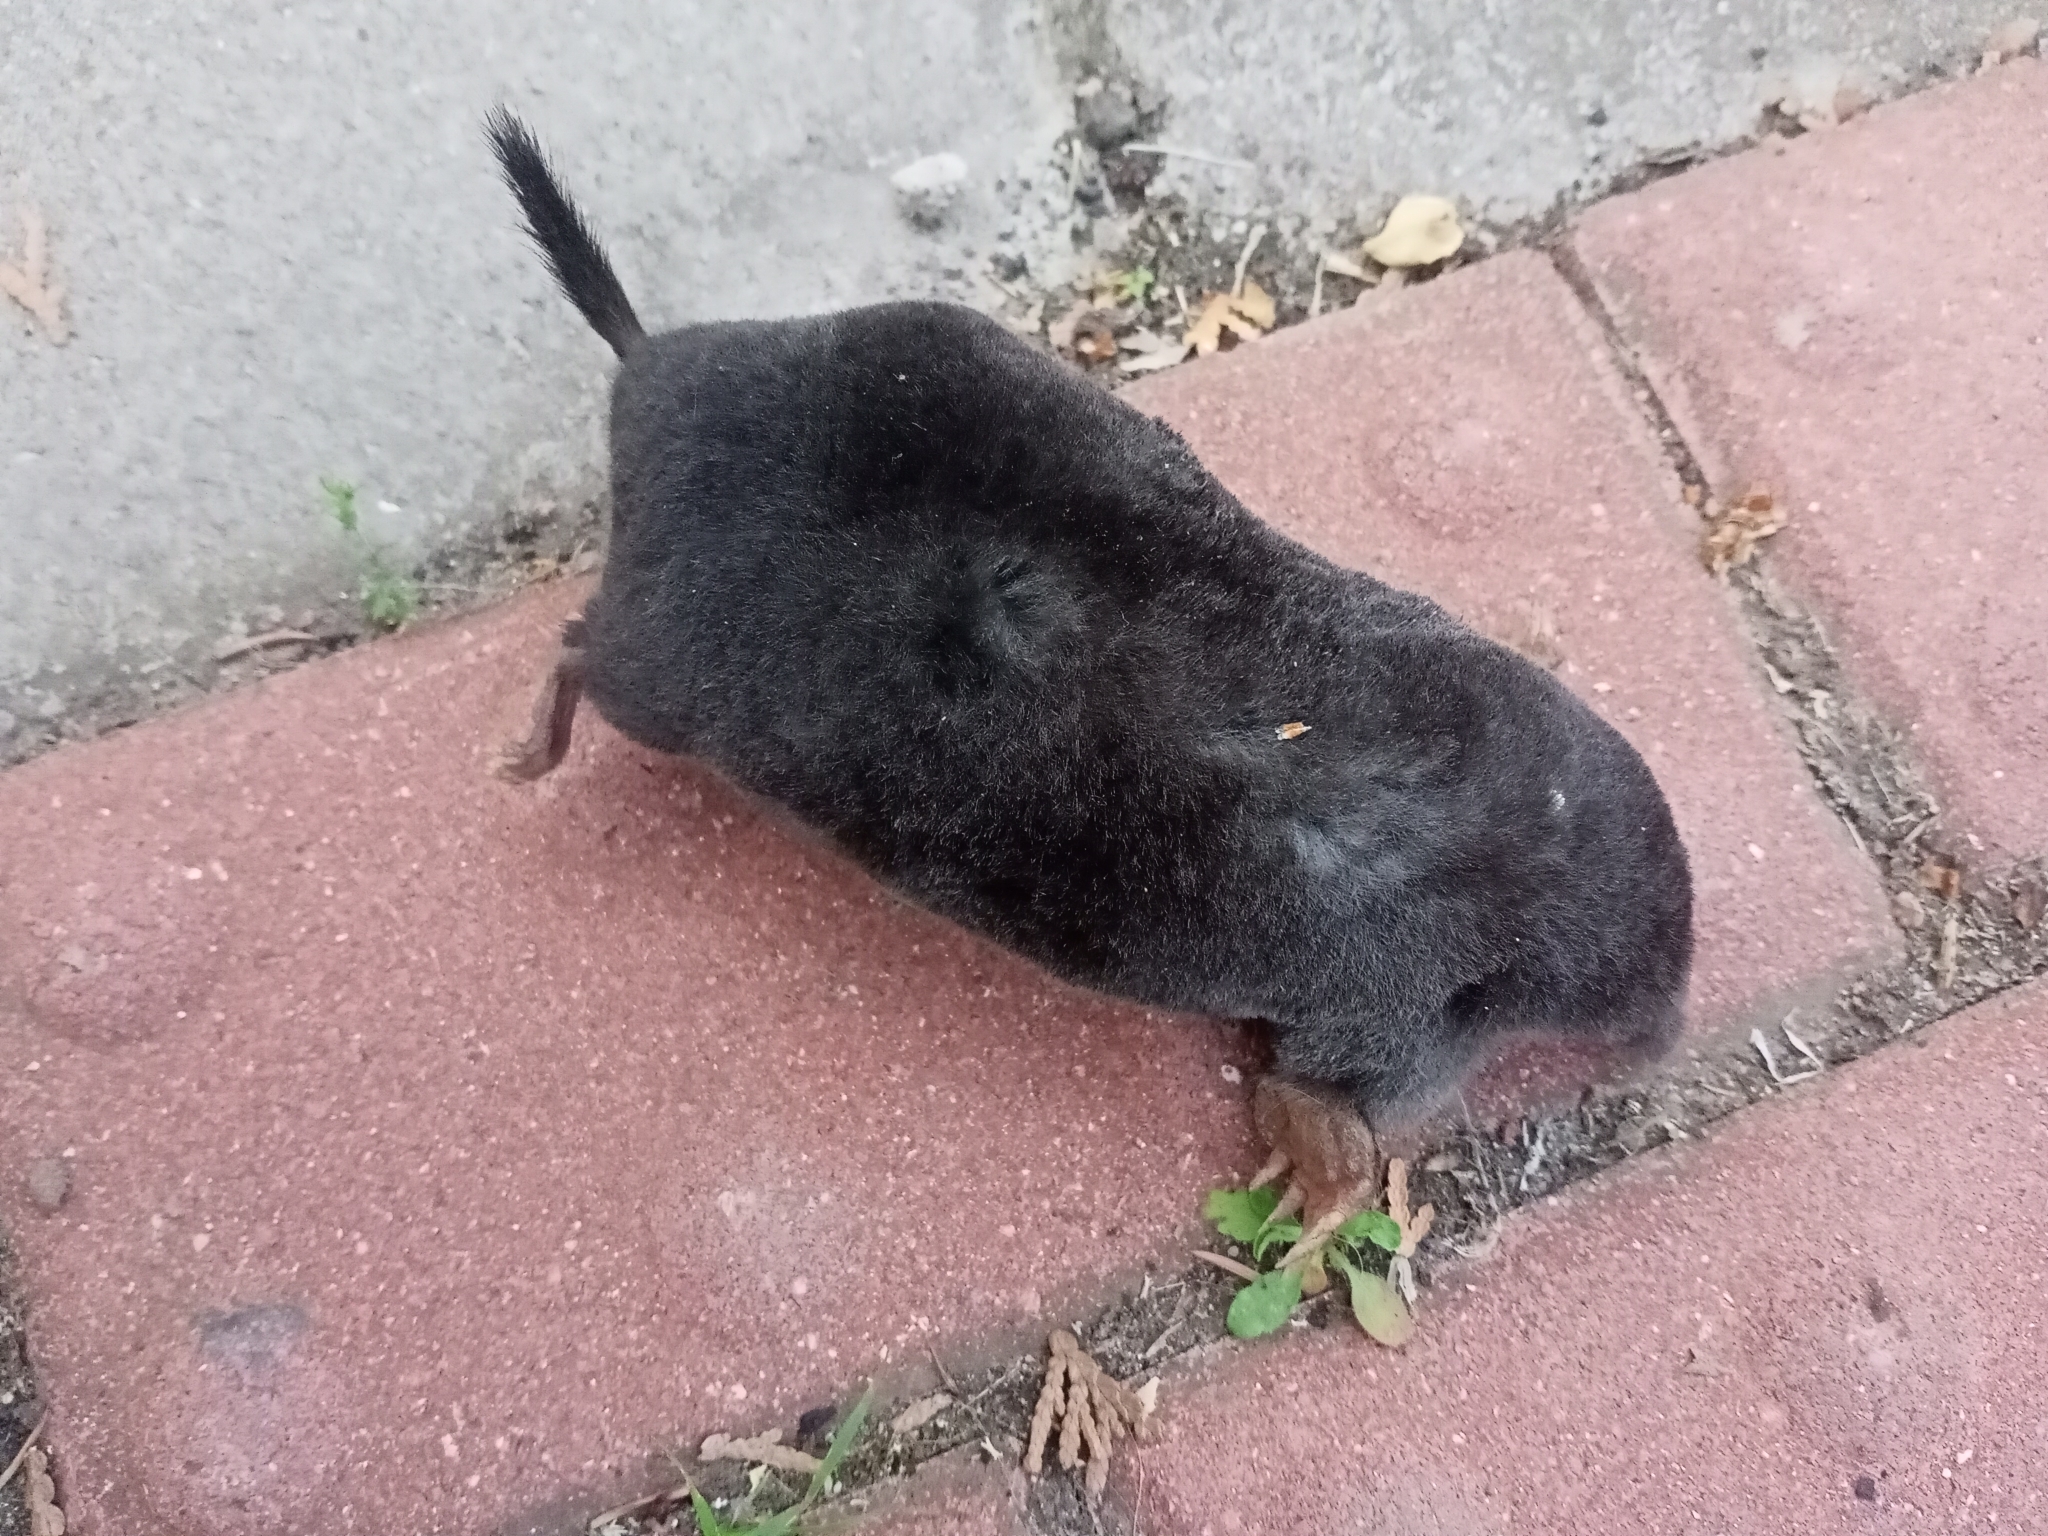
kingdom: Animalia
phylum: Chordata
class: Mammalia
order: Soricomorpha
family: Talpidae
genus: Talpa
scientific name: Talpa europaea
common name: European mole
